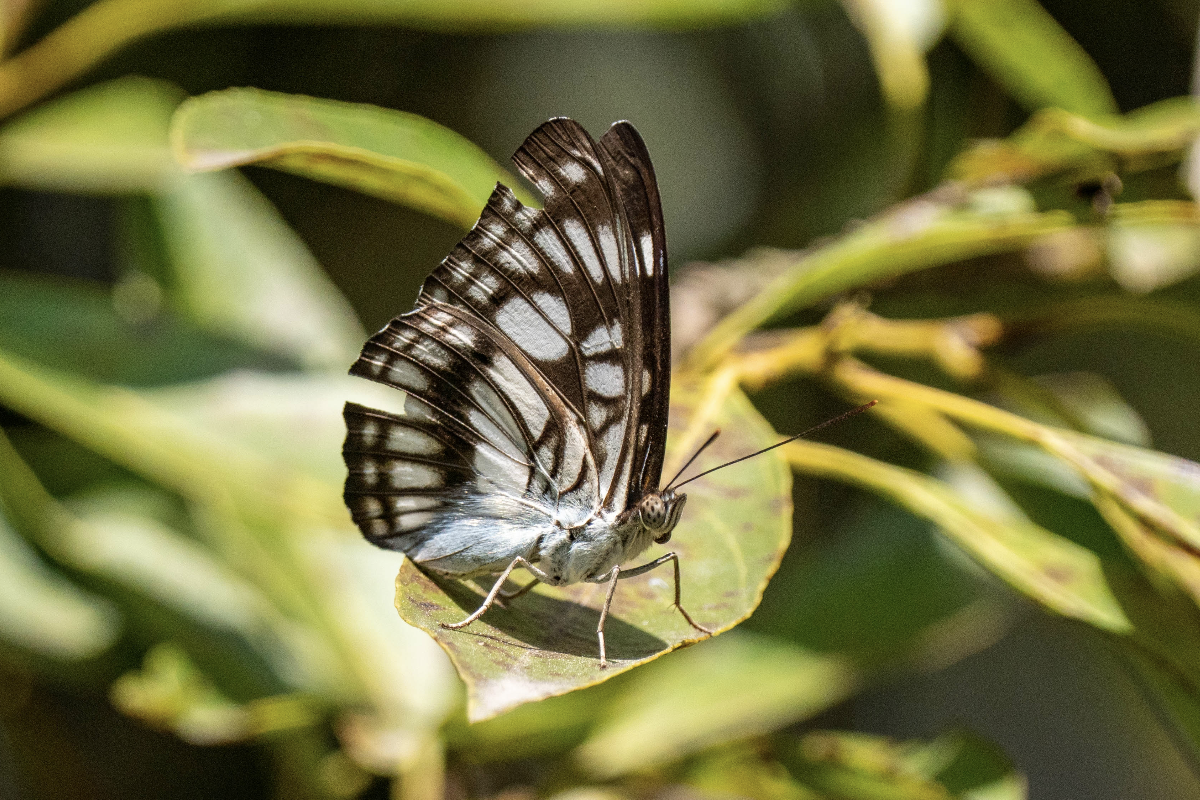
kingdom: Animalia
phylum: Arthropoda
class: Insecta
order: Lepidoptera
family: Nymphalidae
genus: Parathyma
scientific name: Parathyma ranga
